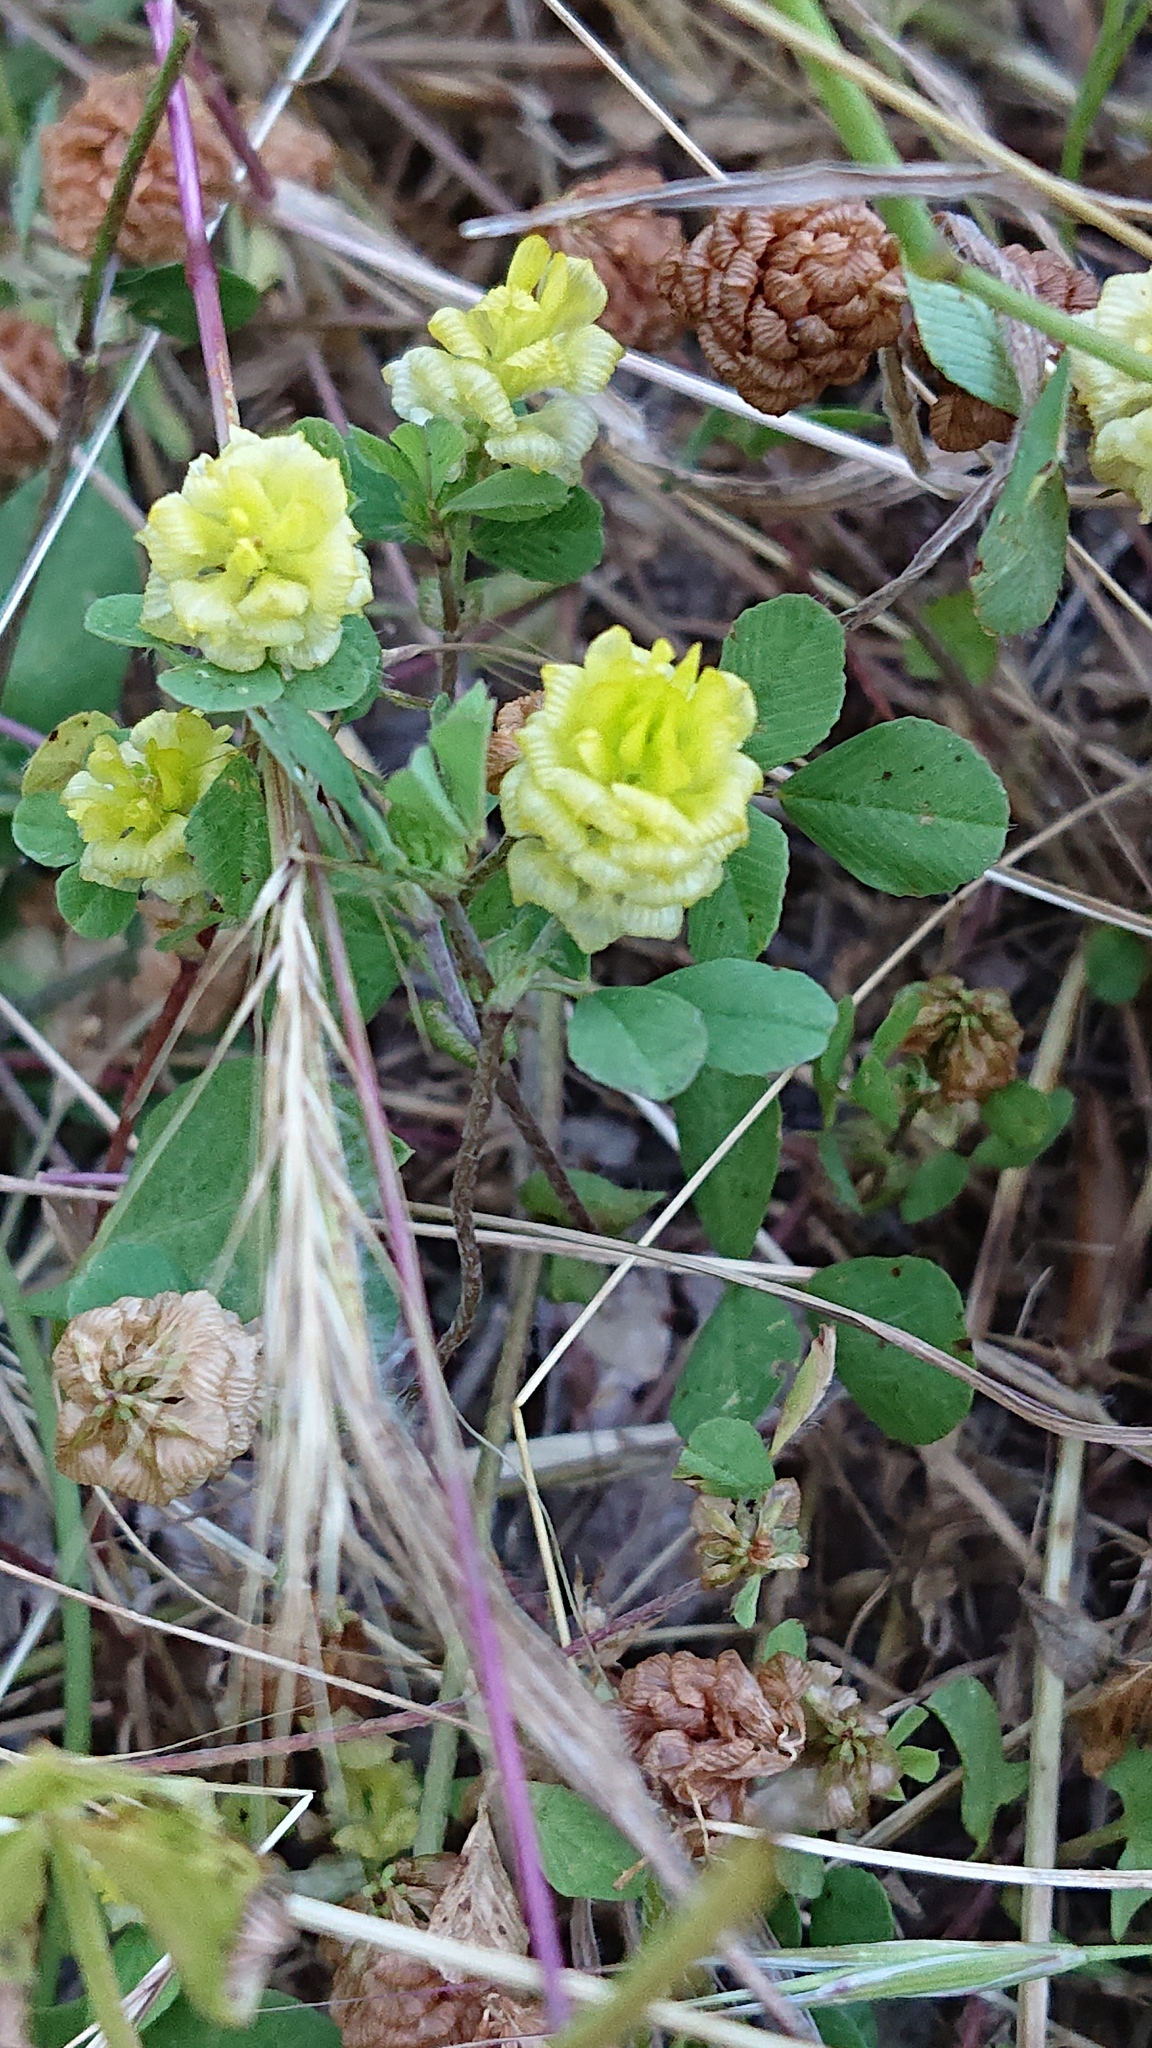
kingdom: Plantae
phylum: Tracheophyta
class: Magnoliopsida
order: Fabales
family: Fabaceae
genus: Trifolium
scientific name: Trifolium campestre
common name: Field clover
